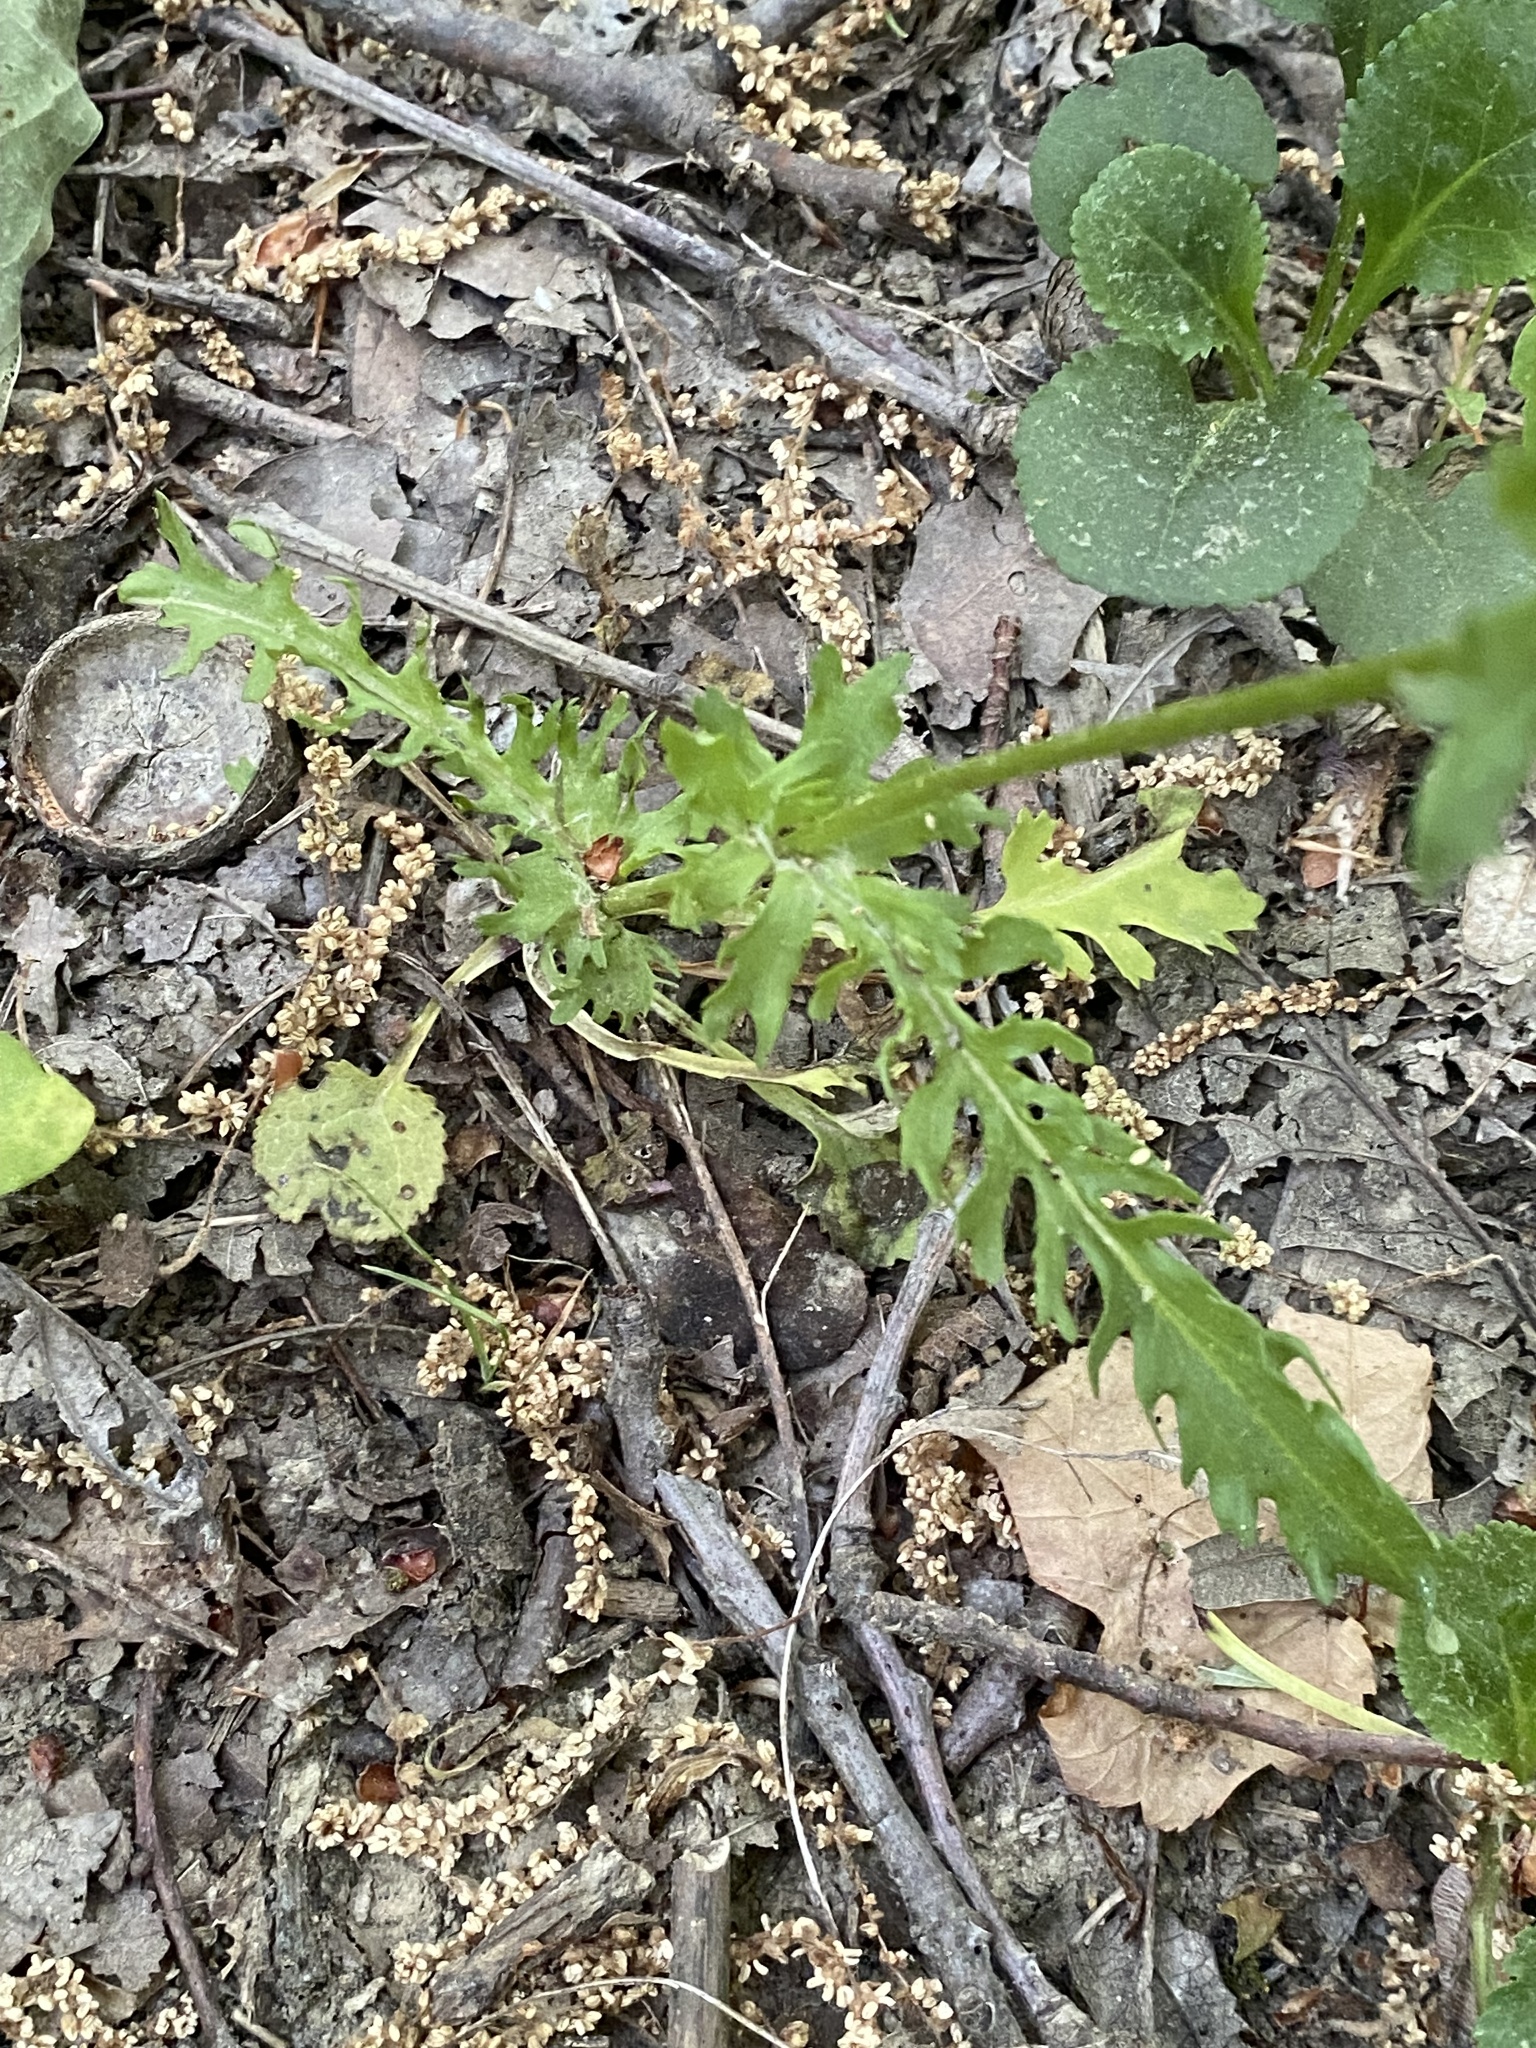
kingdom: Plantae
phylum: Tracheophyta
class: Magnoliopsida
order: Asterales
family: Asteraceae
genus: Packera
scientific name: Packera obovata
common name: Round-leaf ragwort
